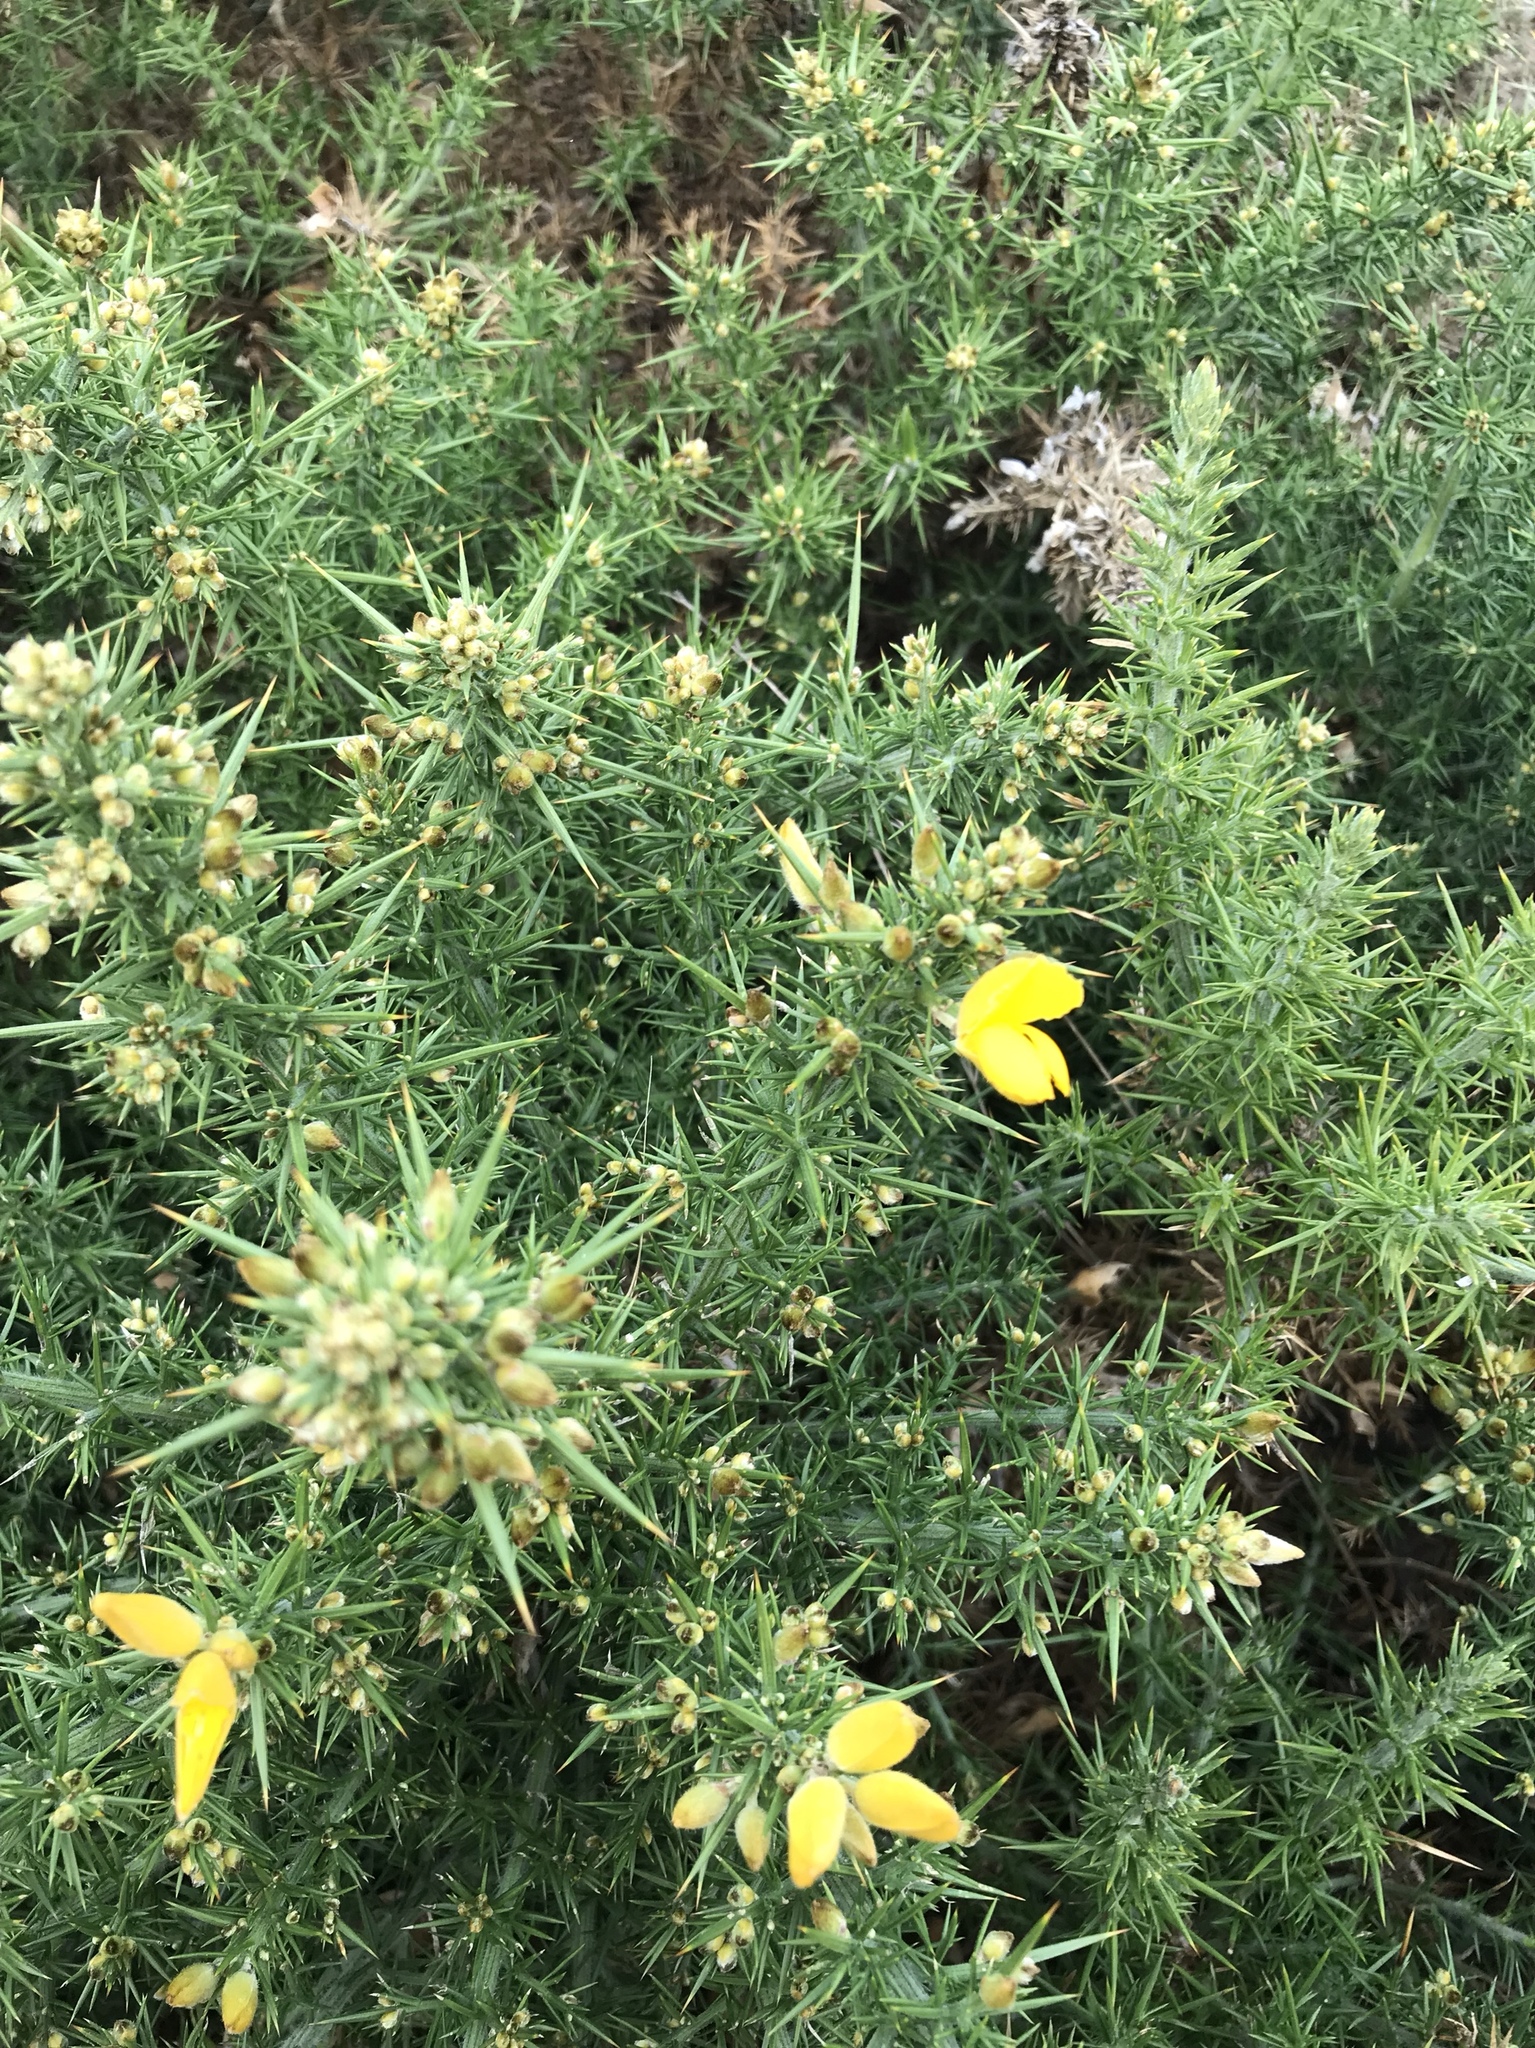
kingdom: Plantae
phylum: Tracheophyta
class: Magnoliopsida
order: Fabales
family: Fabaceae
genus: Ulex
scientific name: Ulex europaeus
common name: Common gorse
